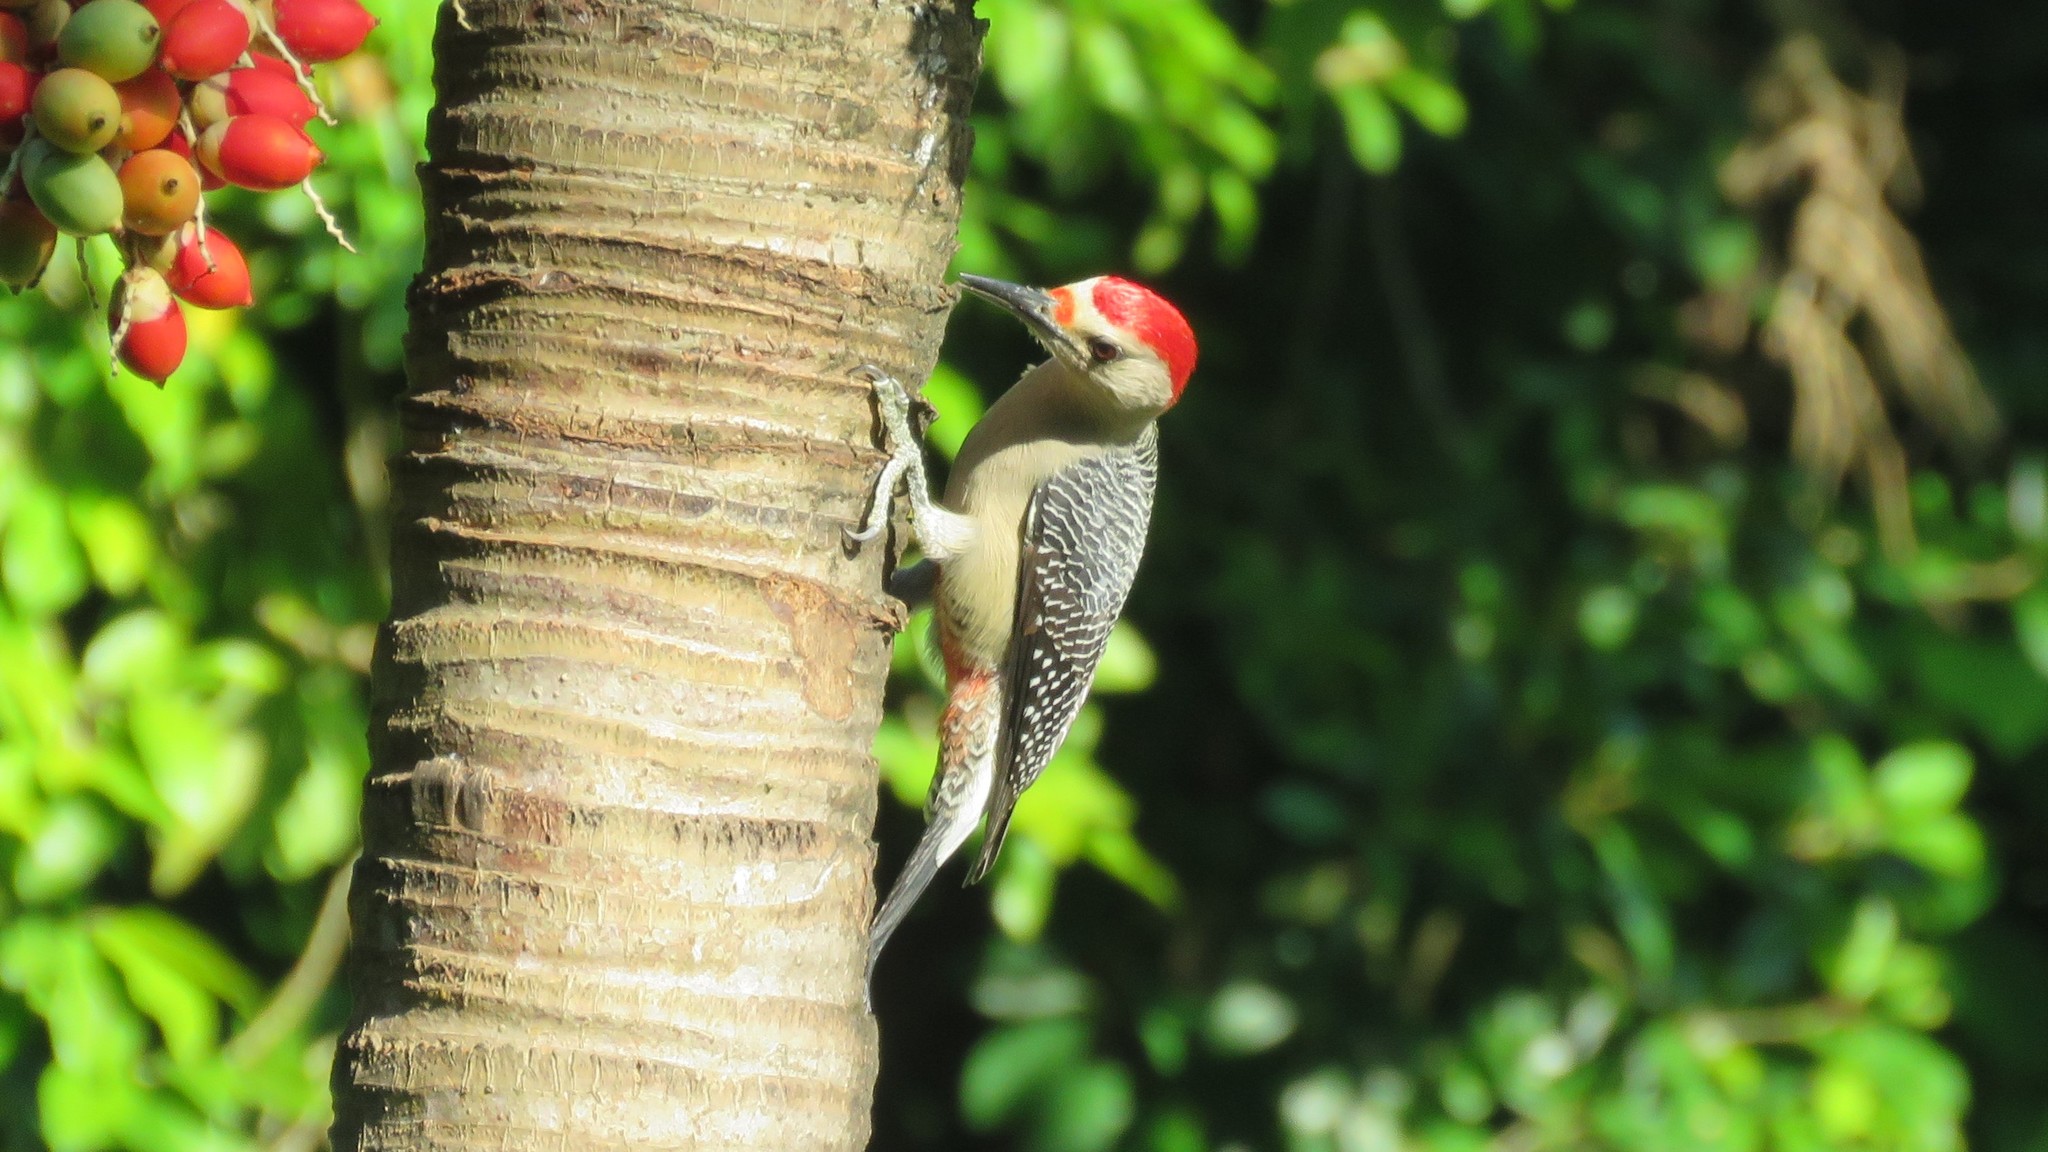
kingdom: Animalia
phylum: Chordata
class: Aves
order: Piciformes
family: Picidae
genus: Melanerpes
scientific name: Melanerpes aurifrons
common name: Golden-fronted woodpecker
